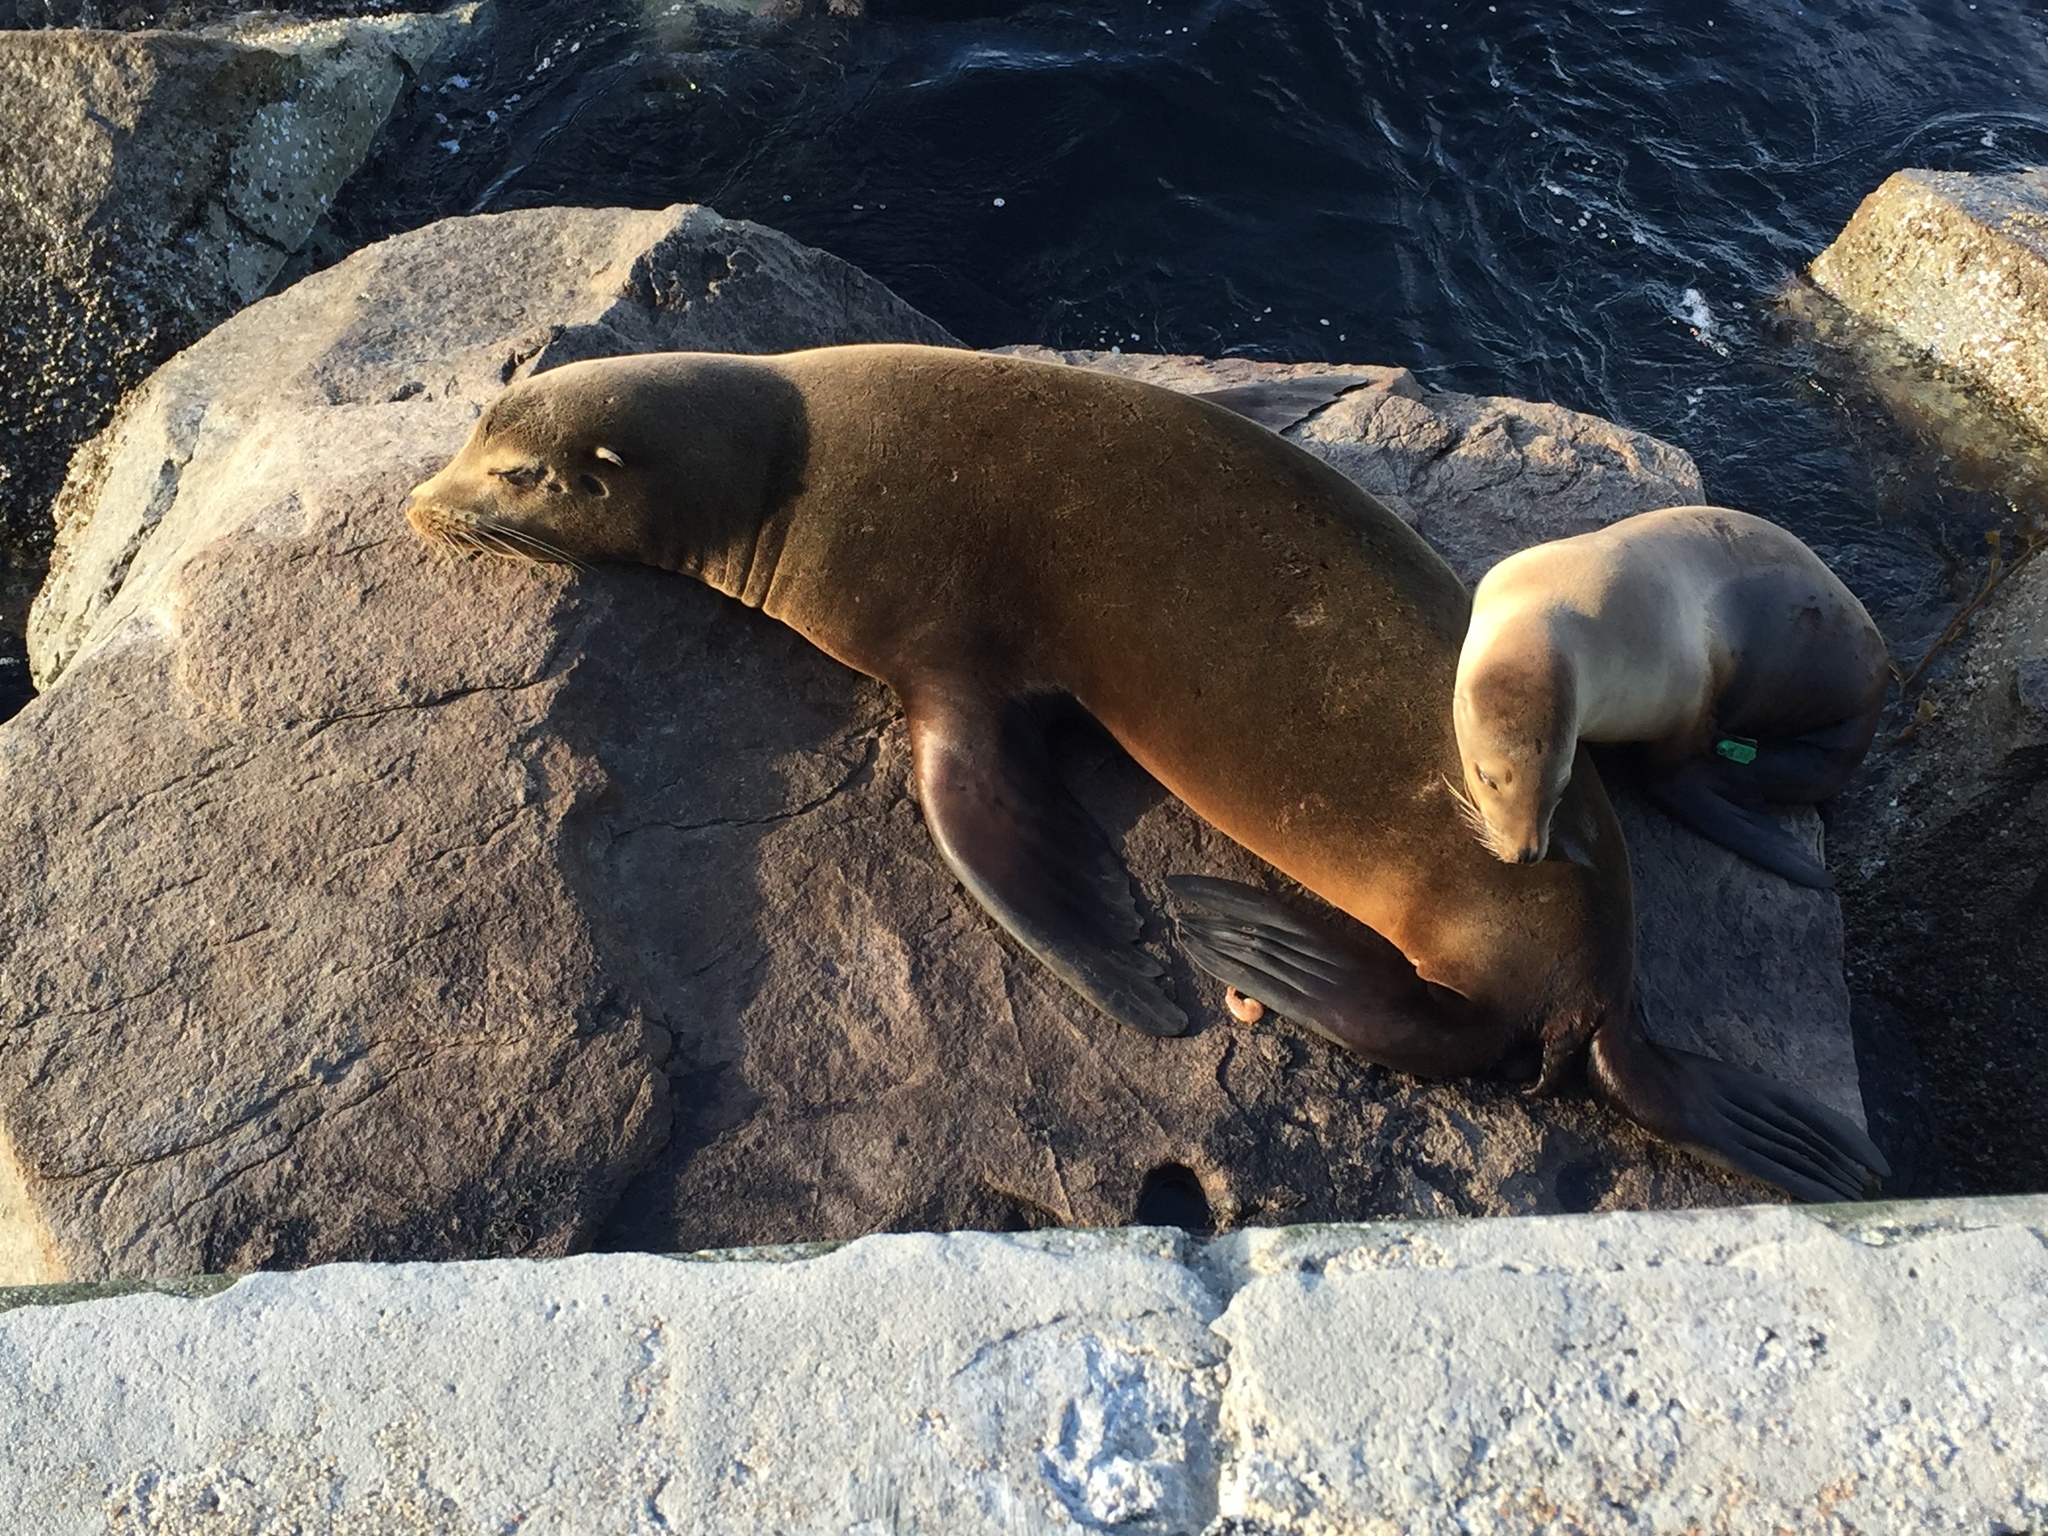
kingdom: Animalia
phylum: Chordata
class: Mammalia
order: Carnivora
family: Otariidae
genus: Zalophus
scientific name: Zalophus californianus
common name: California sea lion
